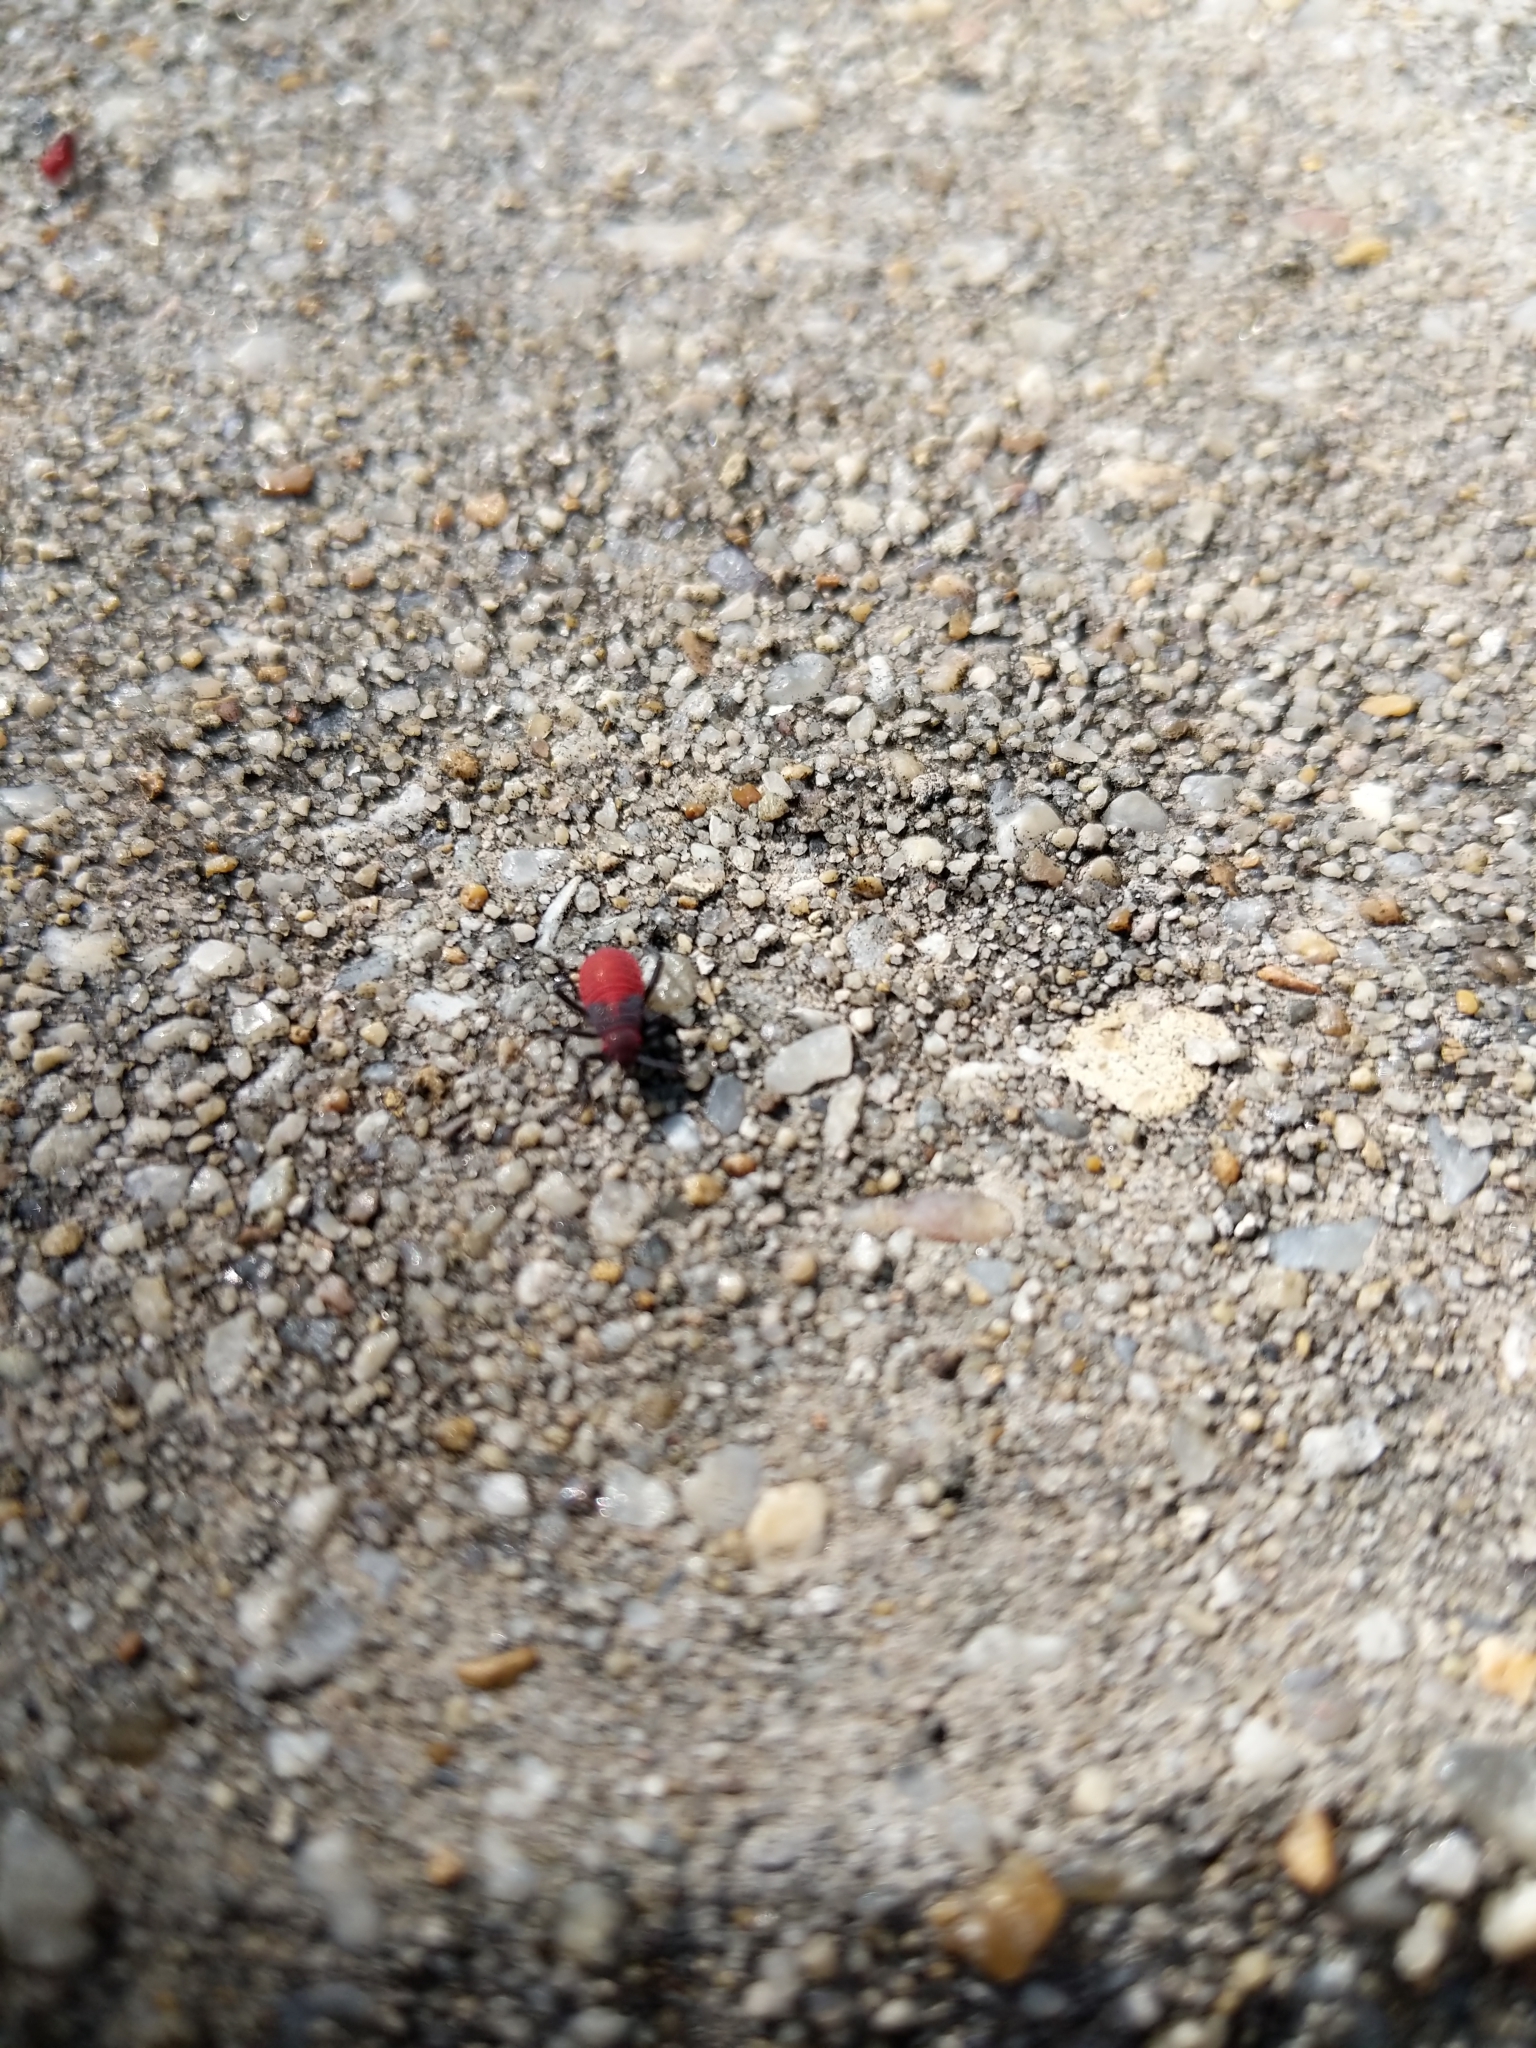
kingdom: Animalia
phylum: Arthropoda
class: Insecta
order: Hemiptera
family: Rhopalidae
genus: Jadera
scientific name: Jadera haematoloma
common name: Red-shouldered bug
